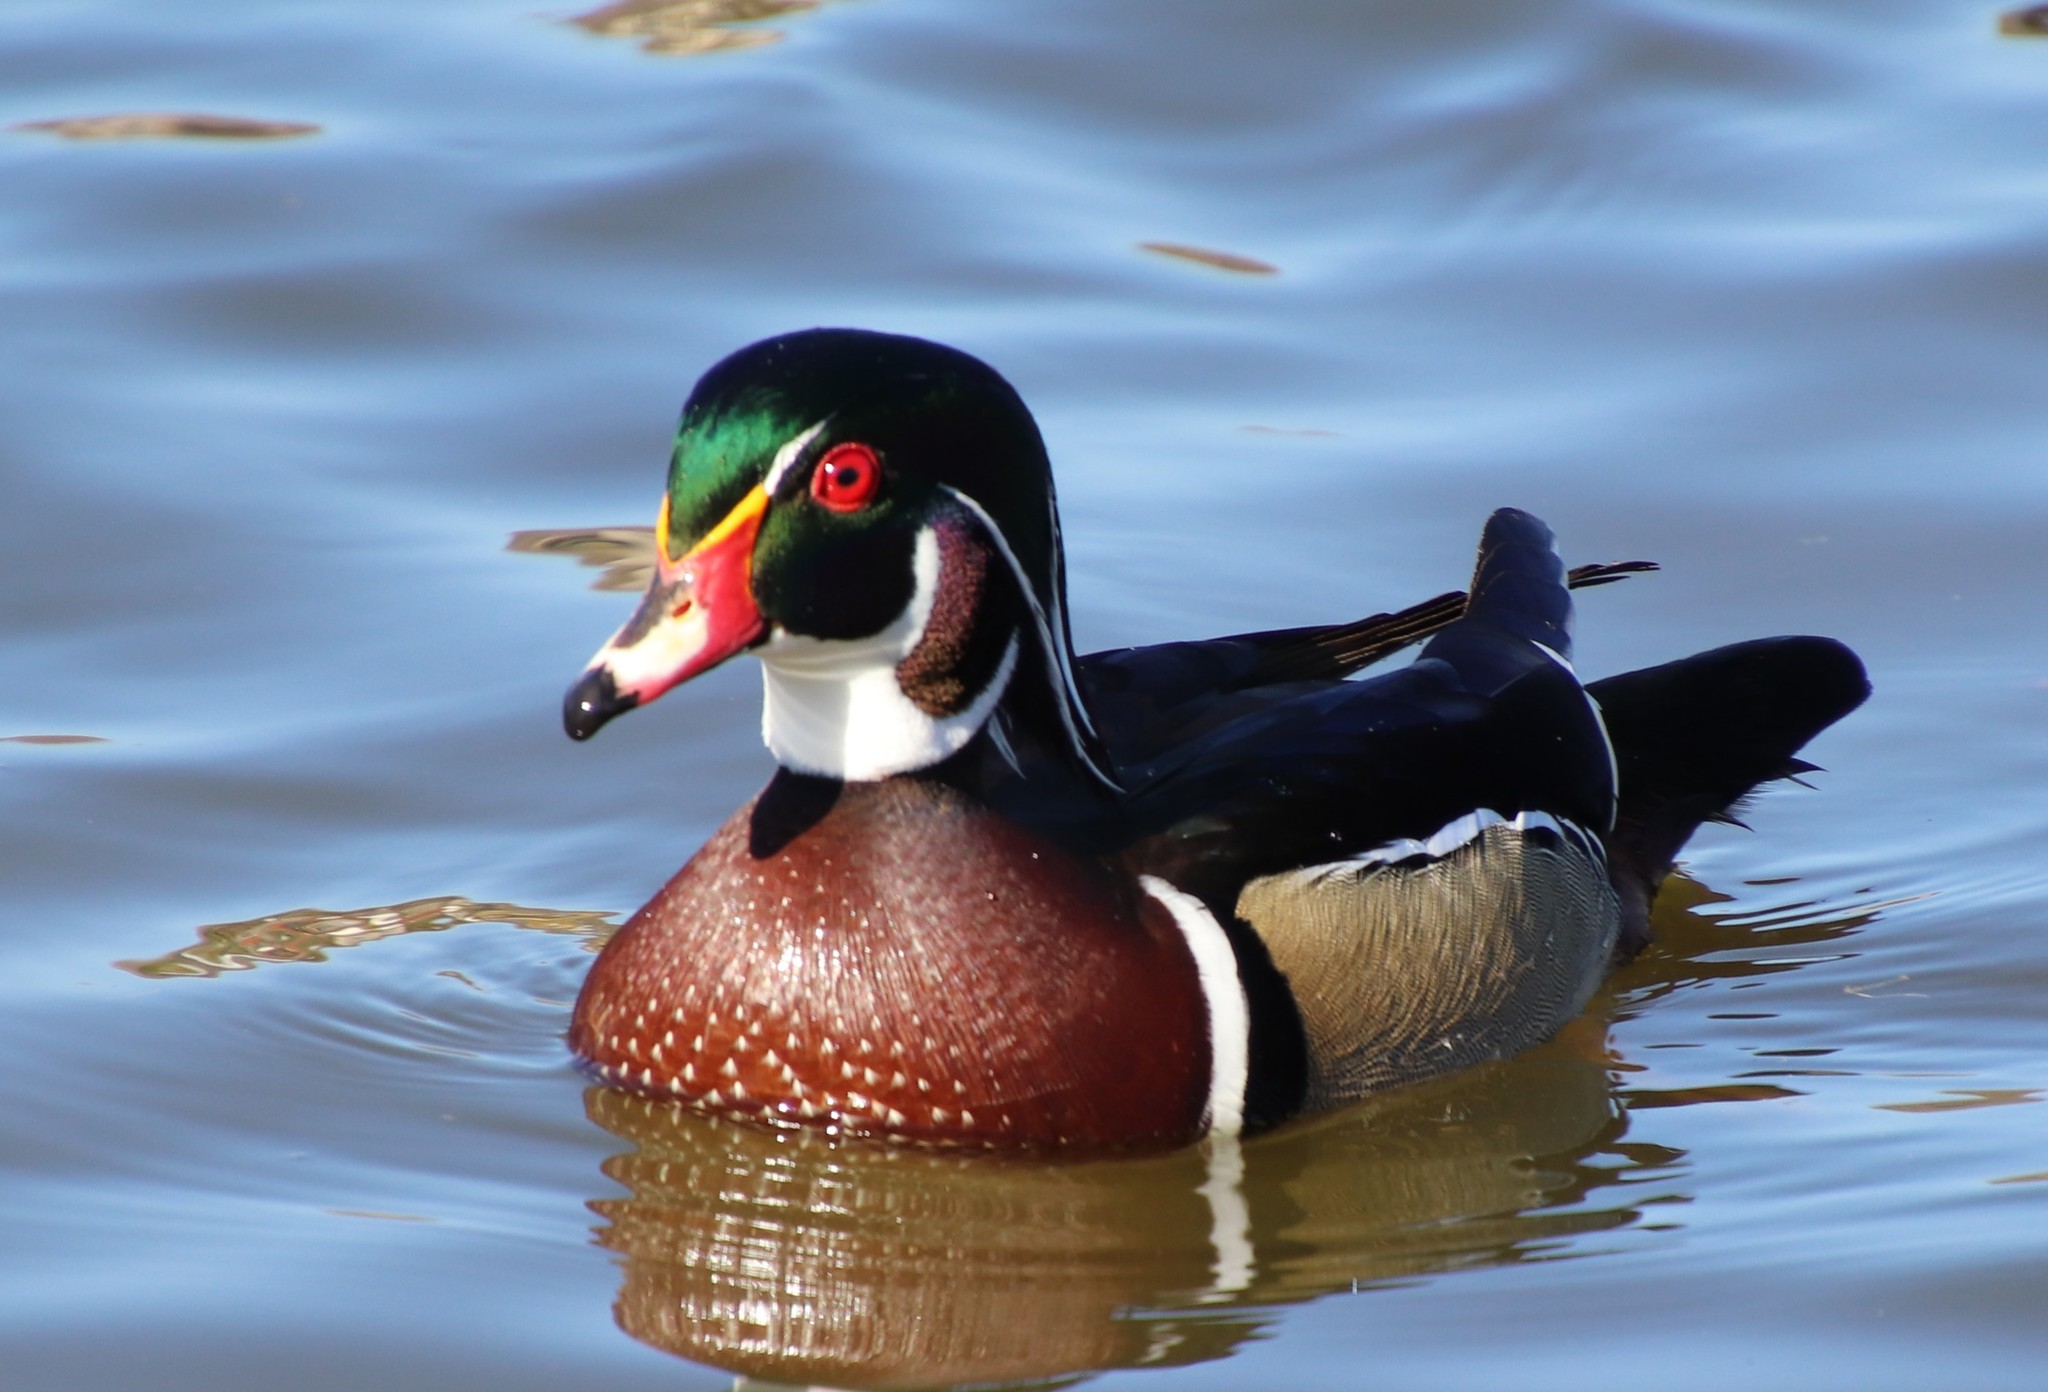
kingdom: Animalia
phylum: Chordata
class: Aves
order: Anseriformes
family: Anatidae
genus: Aix
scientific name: Aix sponsa
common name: Wood duck
